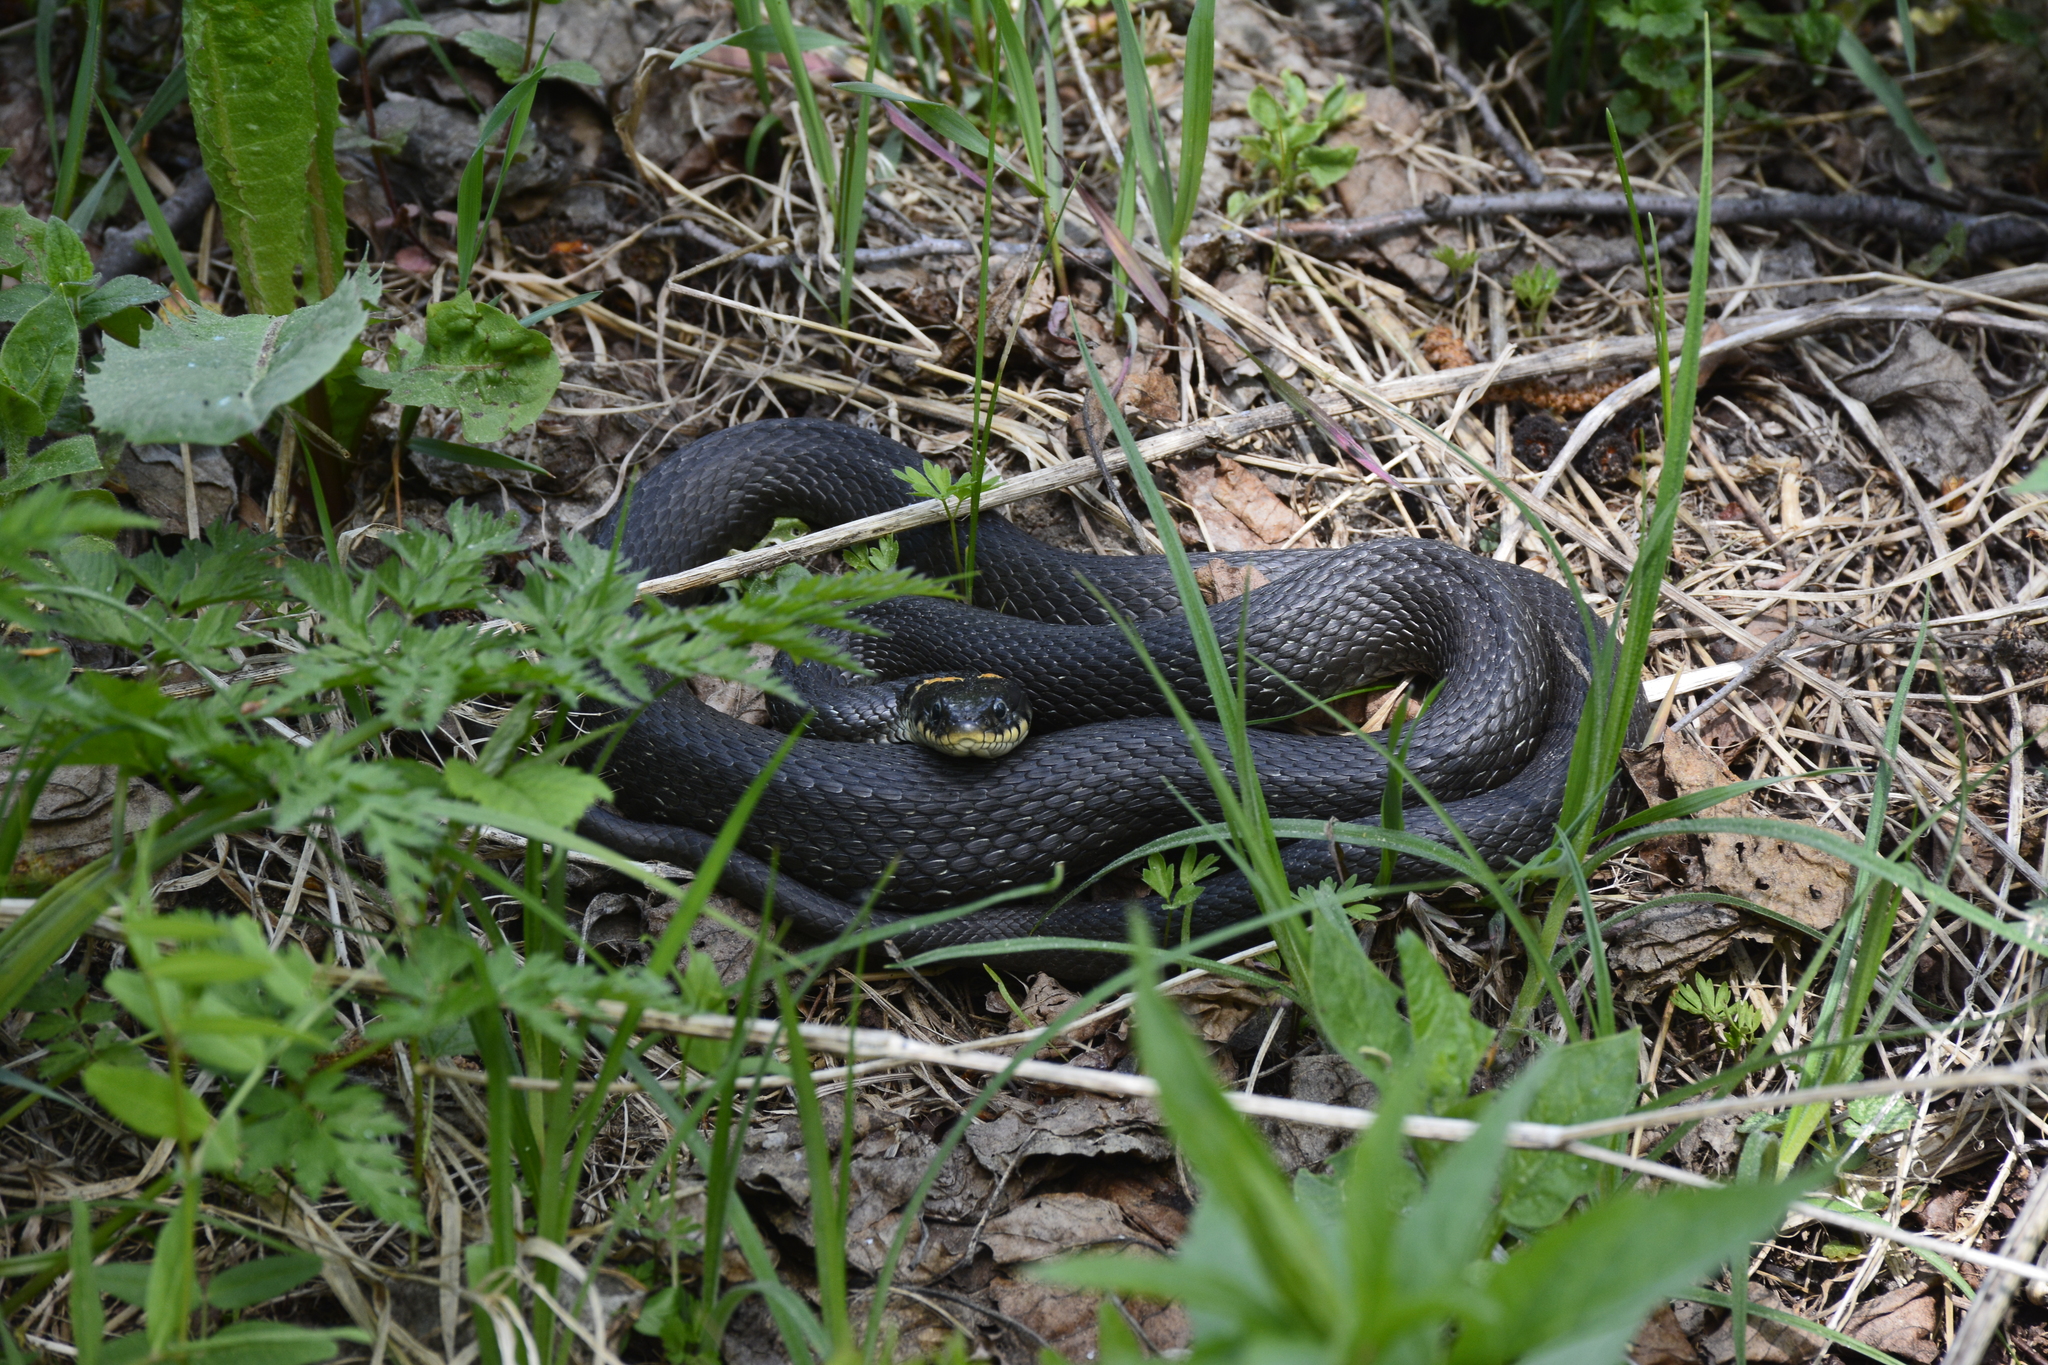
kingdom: Animalia
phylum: Chordata
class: Squamata
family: Colubridae
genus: Natrix
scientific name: Natrix natrix
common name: Grass snake
